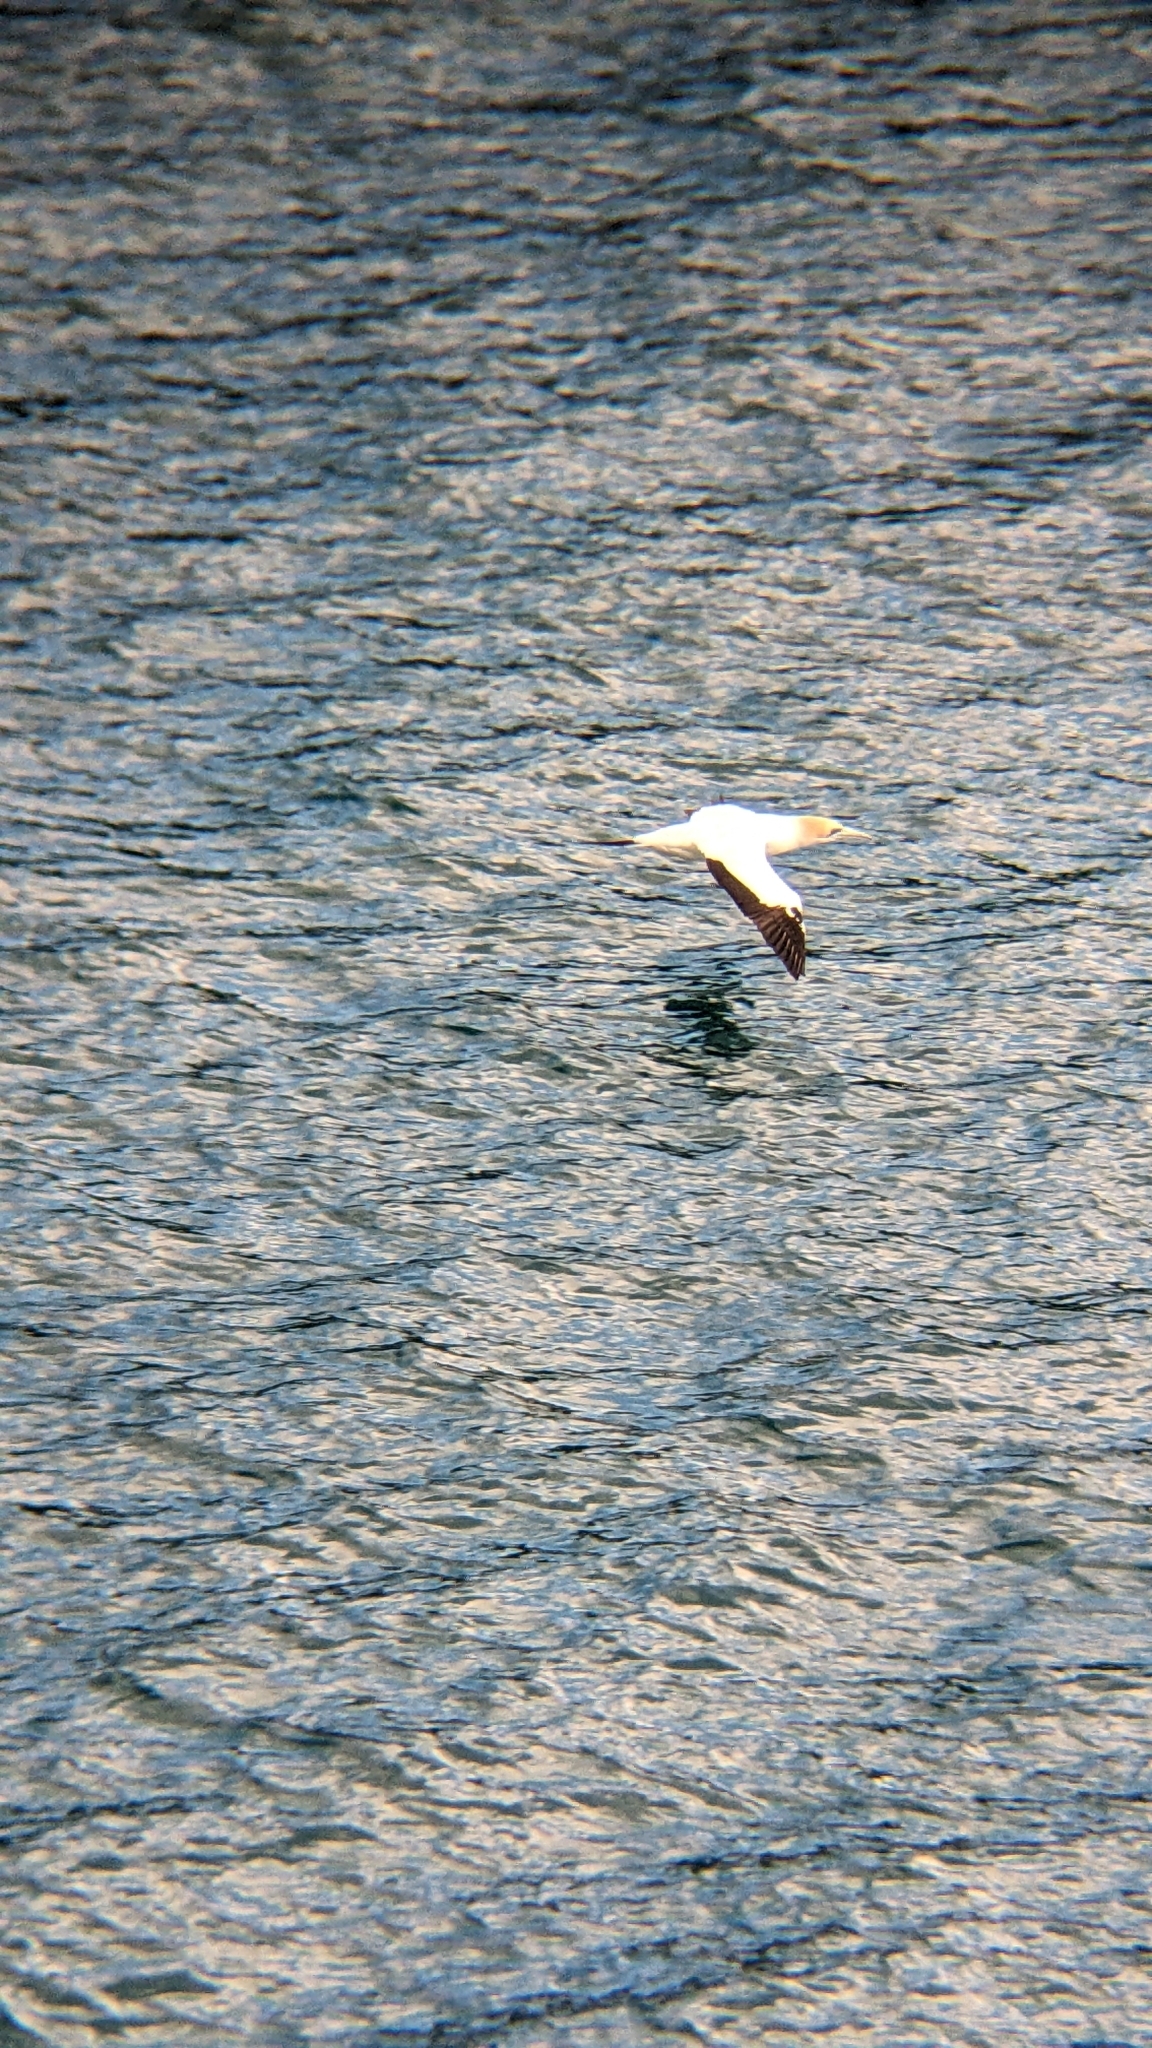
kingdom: Animalia
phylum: Chordata
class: Aves
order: Suliformes
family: Sulidae
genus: Morus
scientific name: Morus serrator
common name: Australasian gannet
